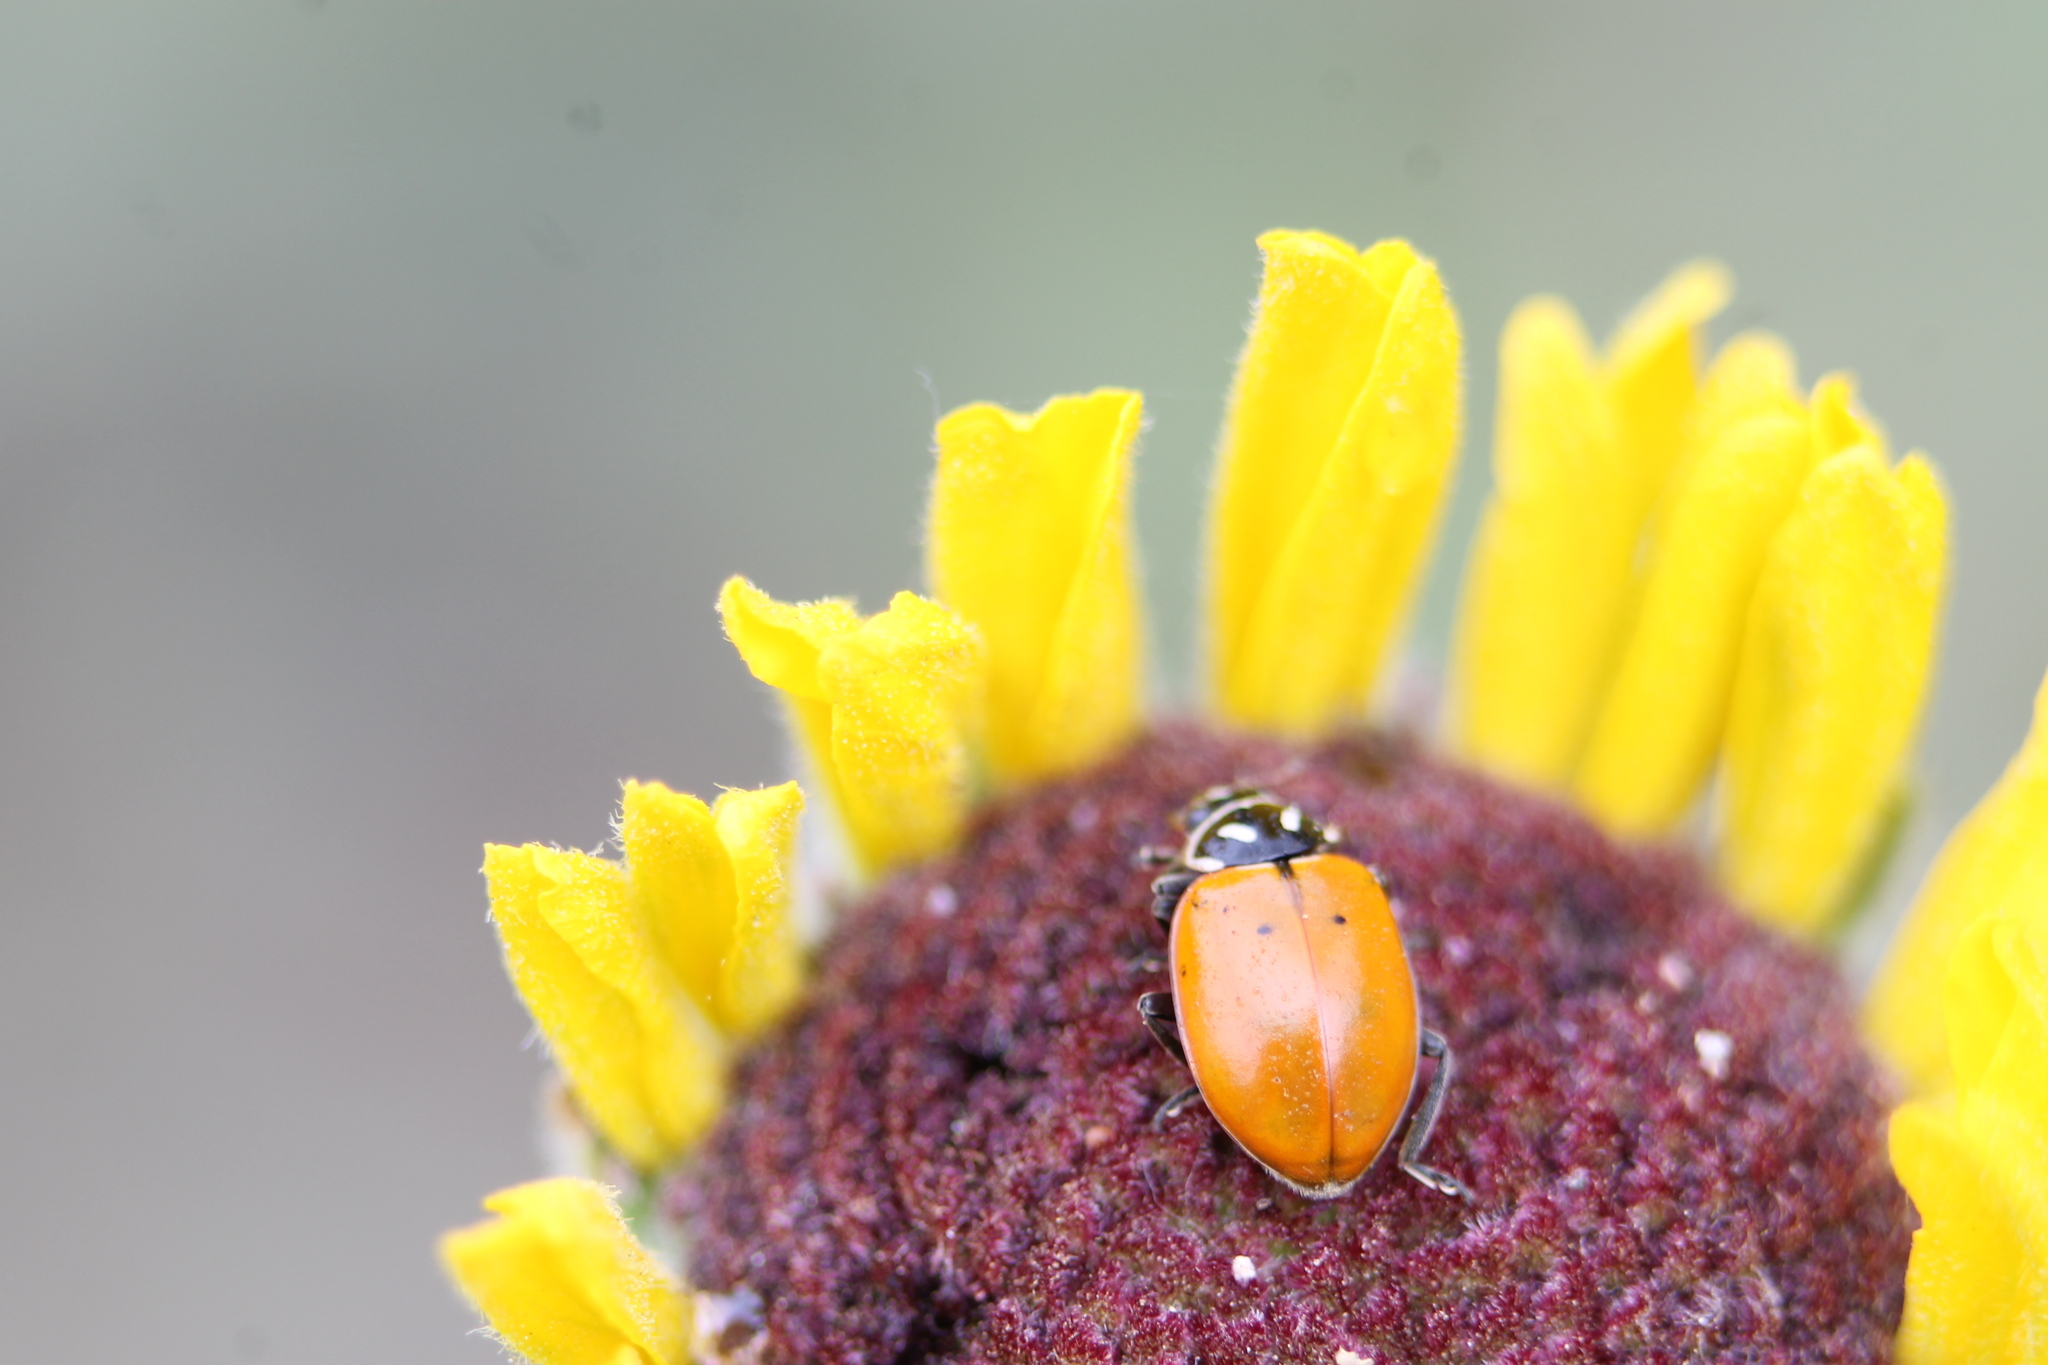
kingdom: Animalia
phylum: Arthropoda
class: Insecta
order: Coleoptera
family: Coccinellidae
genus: Hippodamia
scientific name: Hippodamia convergens
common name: Convergent lady beetle
